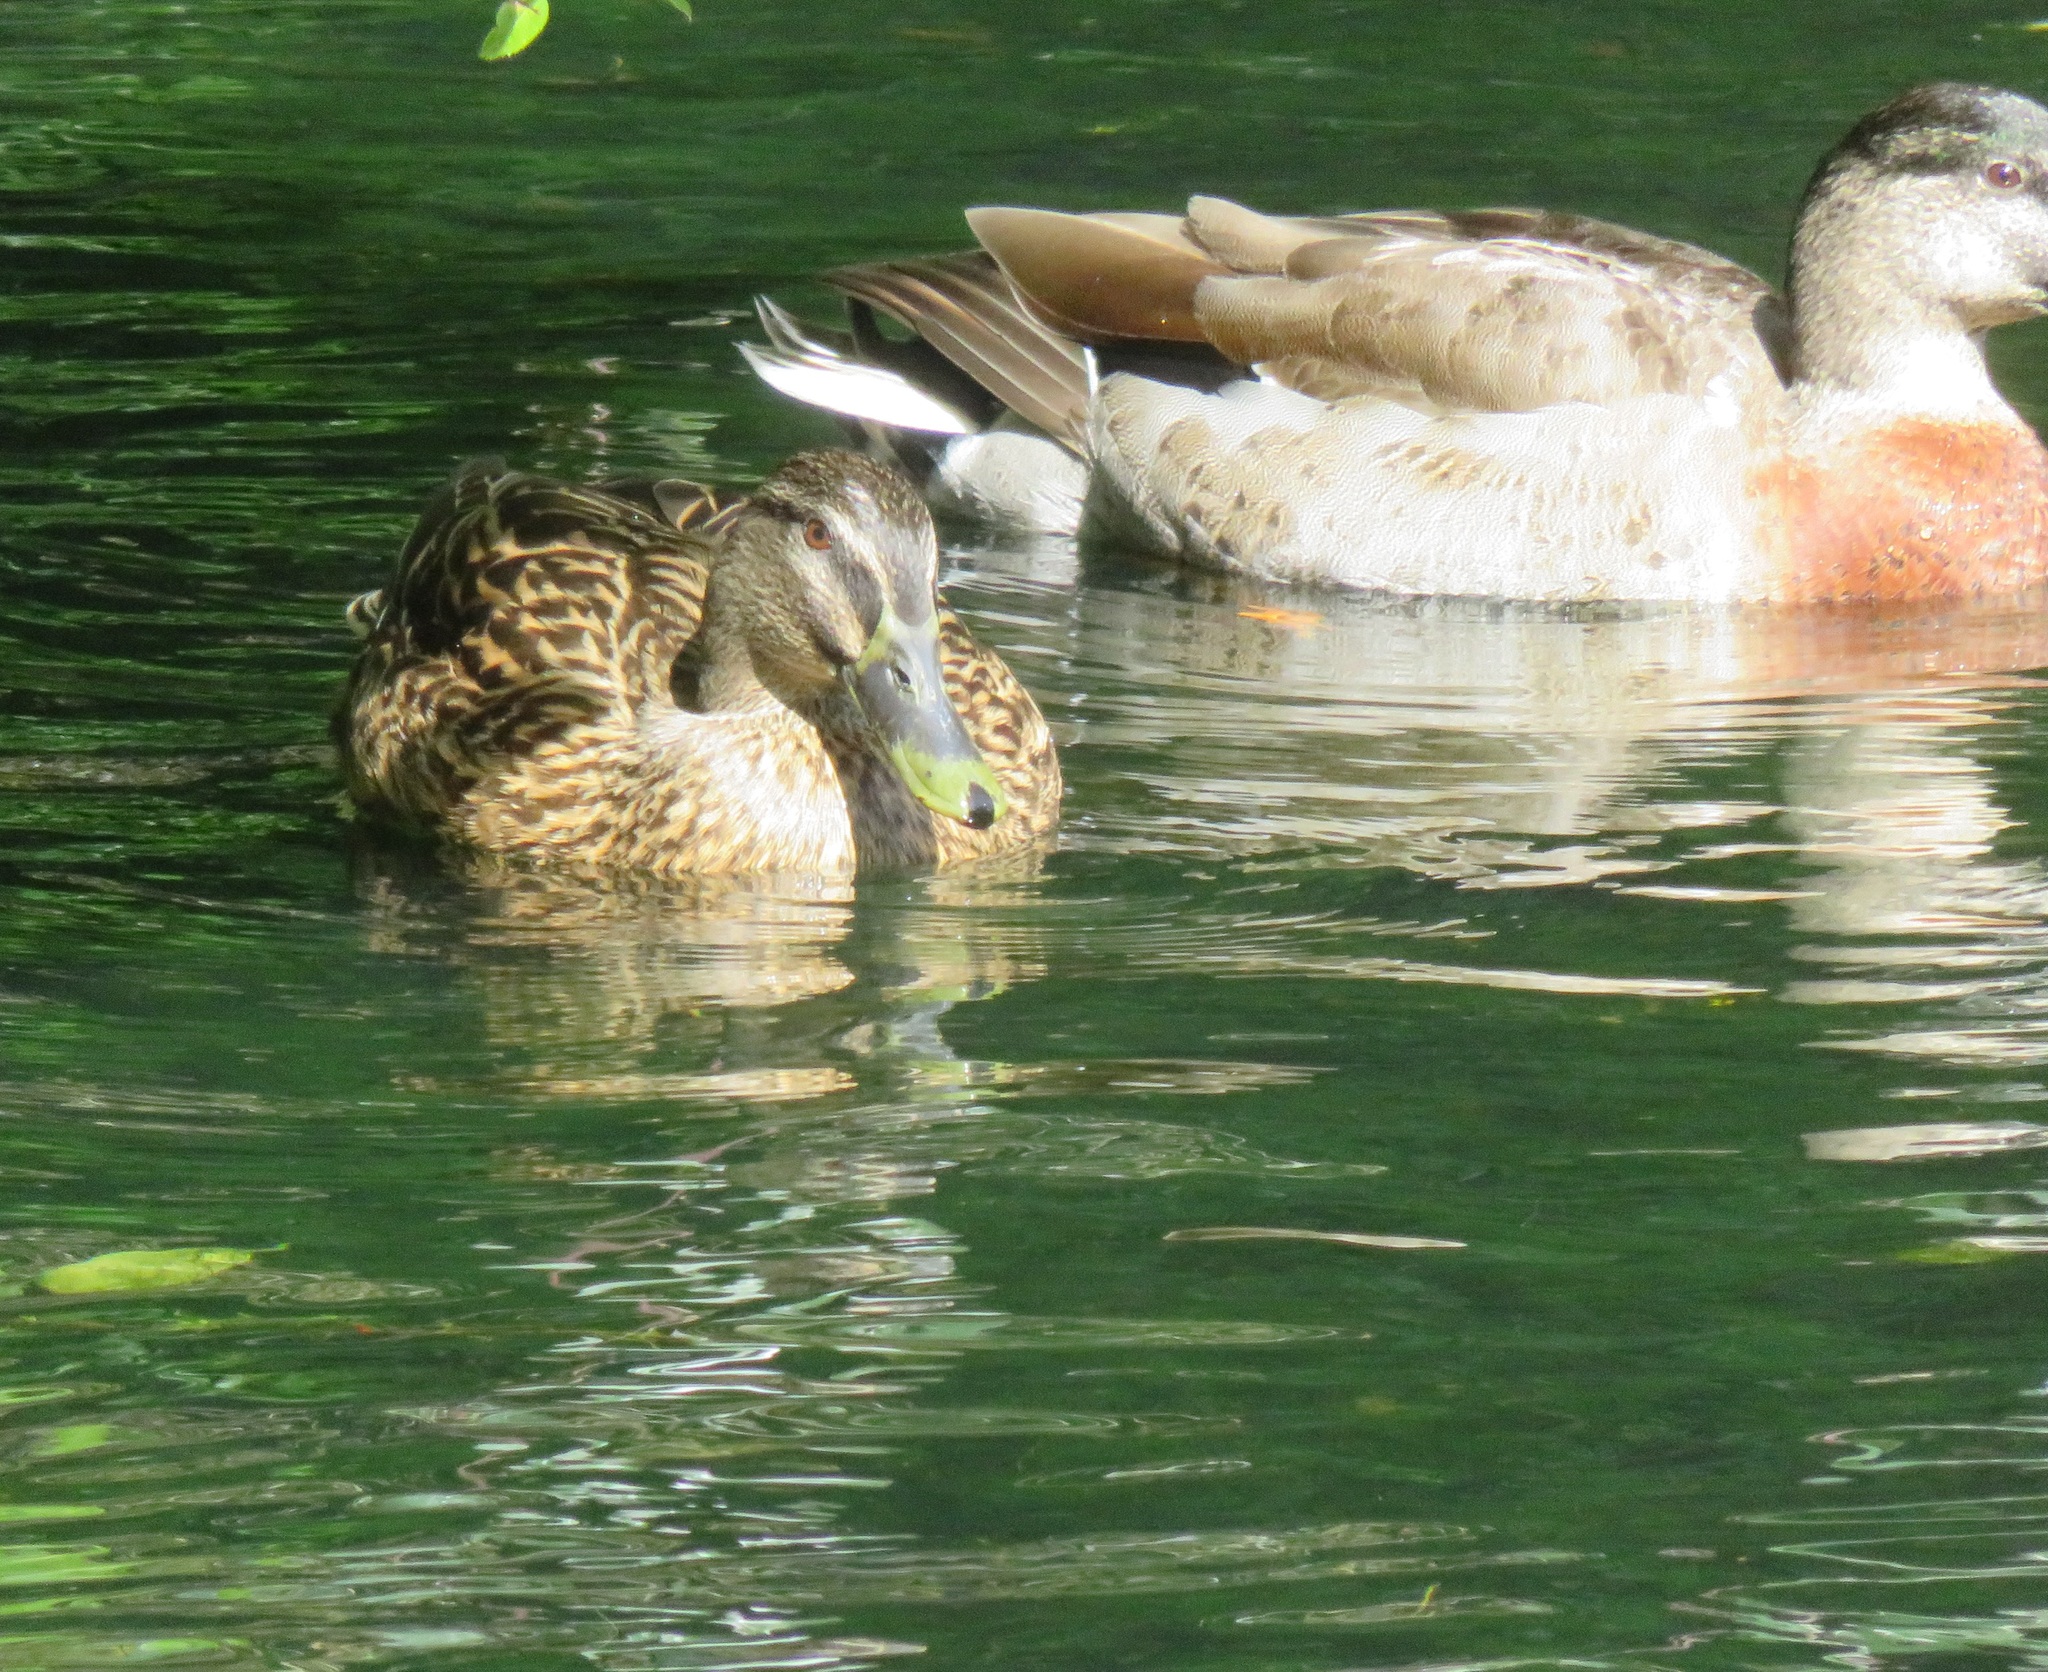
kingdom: Animalia
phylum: Chordata
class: Aves
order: Anseriformes
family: Anatidae
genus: Anas
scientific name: Anas
